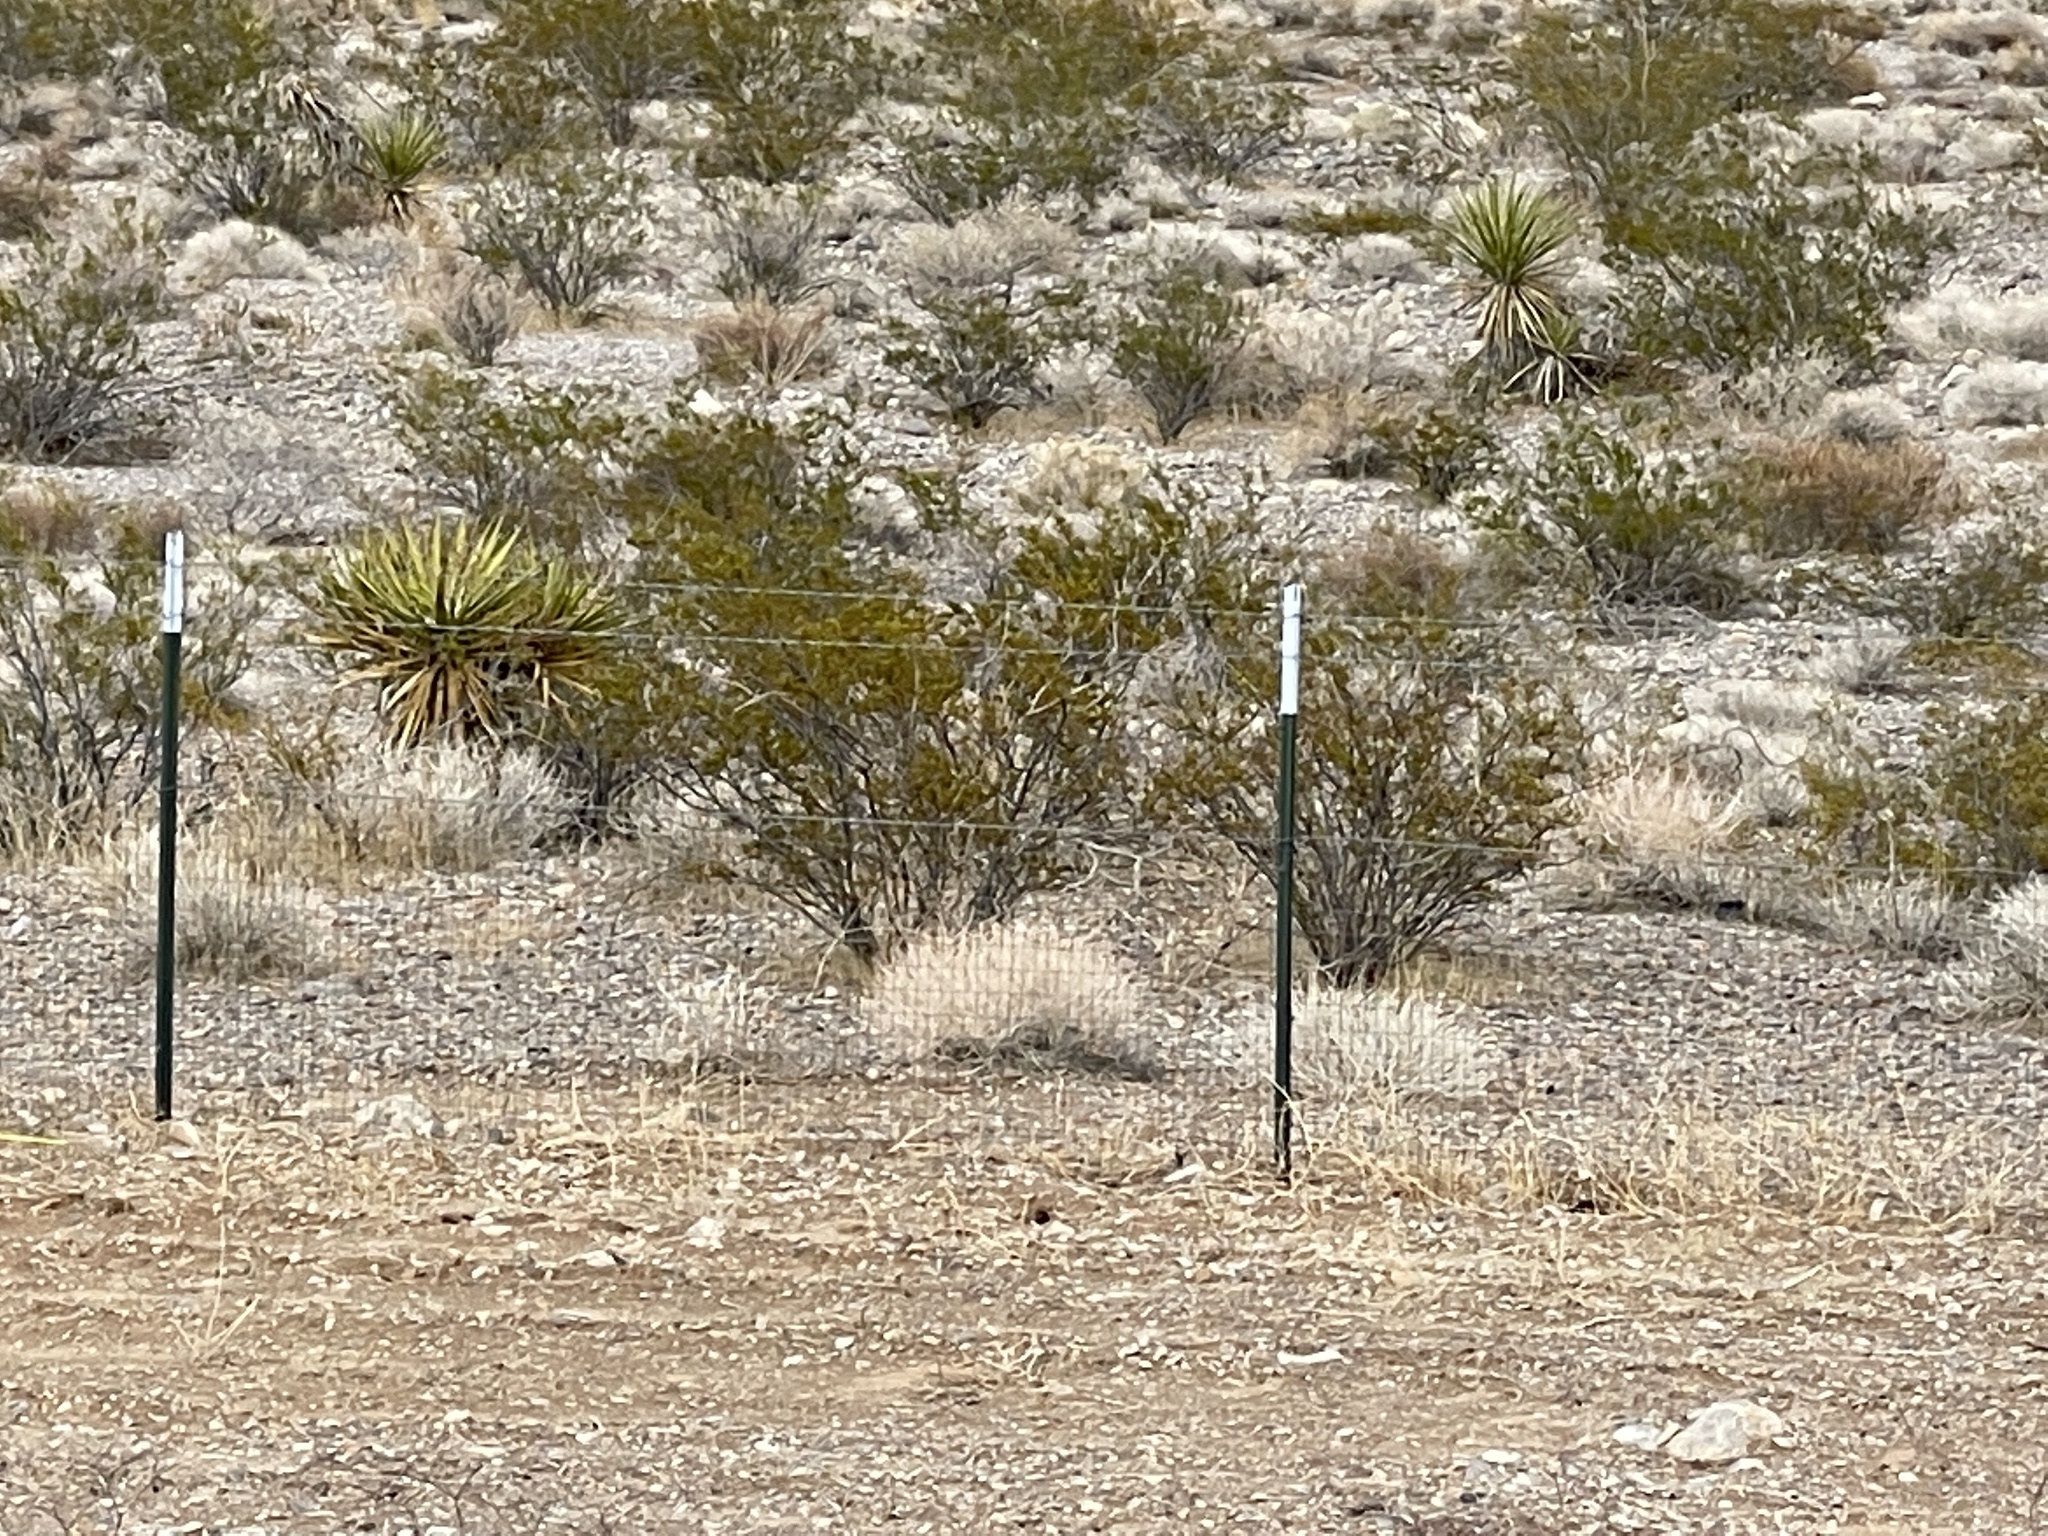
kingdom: Plantae
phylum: Tracheophyta
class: Magnoliopsida
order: Zygophyllales
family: Zygophyllaceae
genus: Larrea
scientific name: Larrea tridentata
